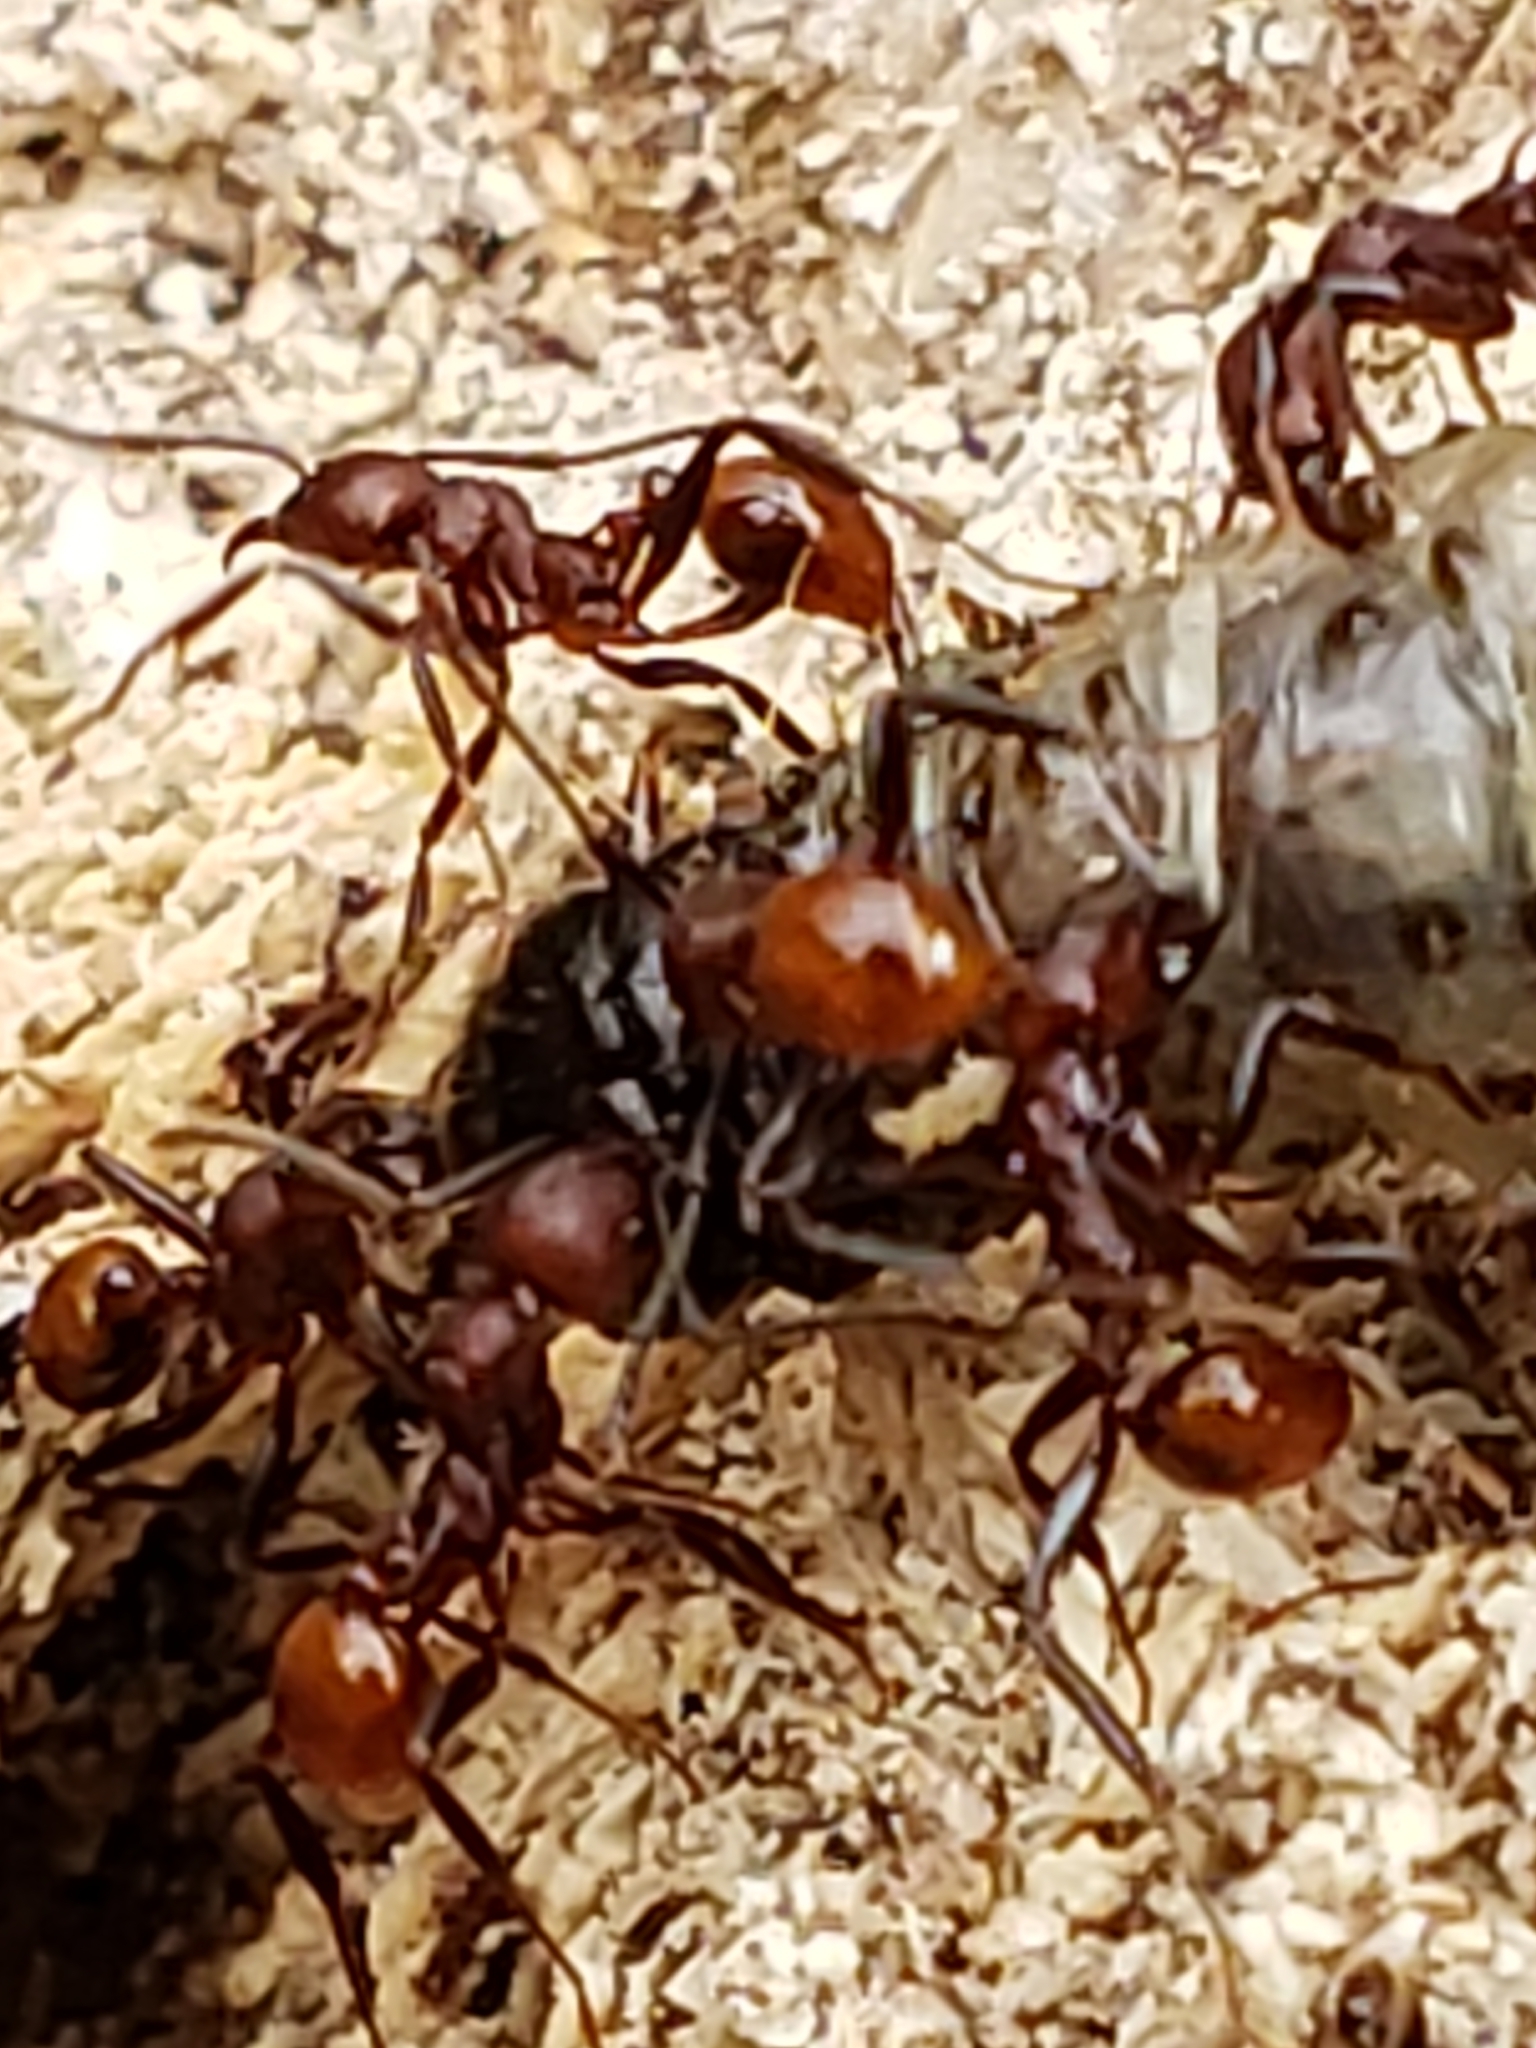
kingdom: Animalia
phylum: Arthropoda
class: Insecta
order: Hymenoptera
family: Formicidae
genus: Aphaenogaster
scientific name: Aphaenogaster tennesseensis
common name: Tennessee thread-waisted ant
